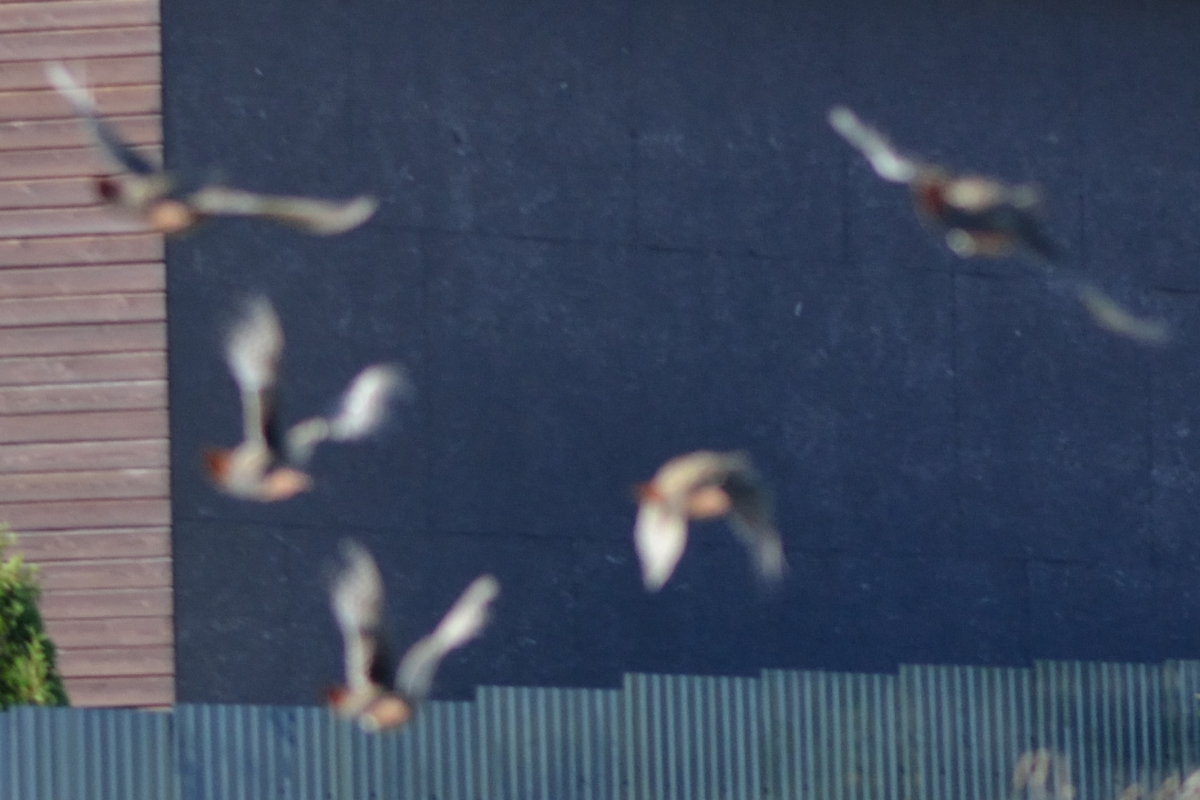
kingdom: Animalia
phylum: Chordata
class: Aves
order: Galliformes
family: Phasianidae
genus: Perdix
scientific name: Perdix perdix
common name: Grey partridge
